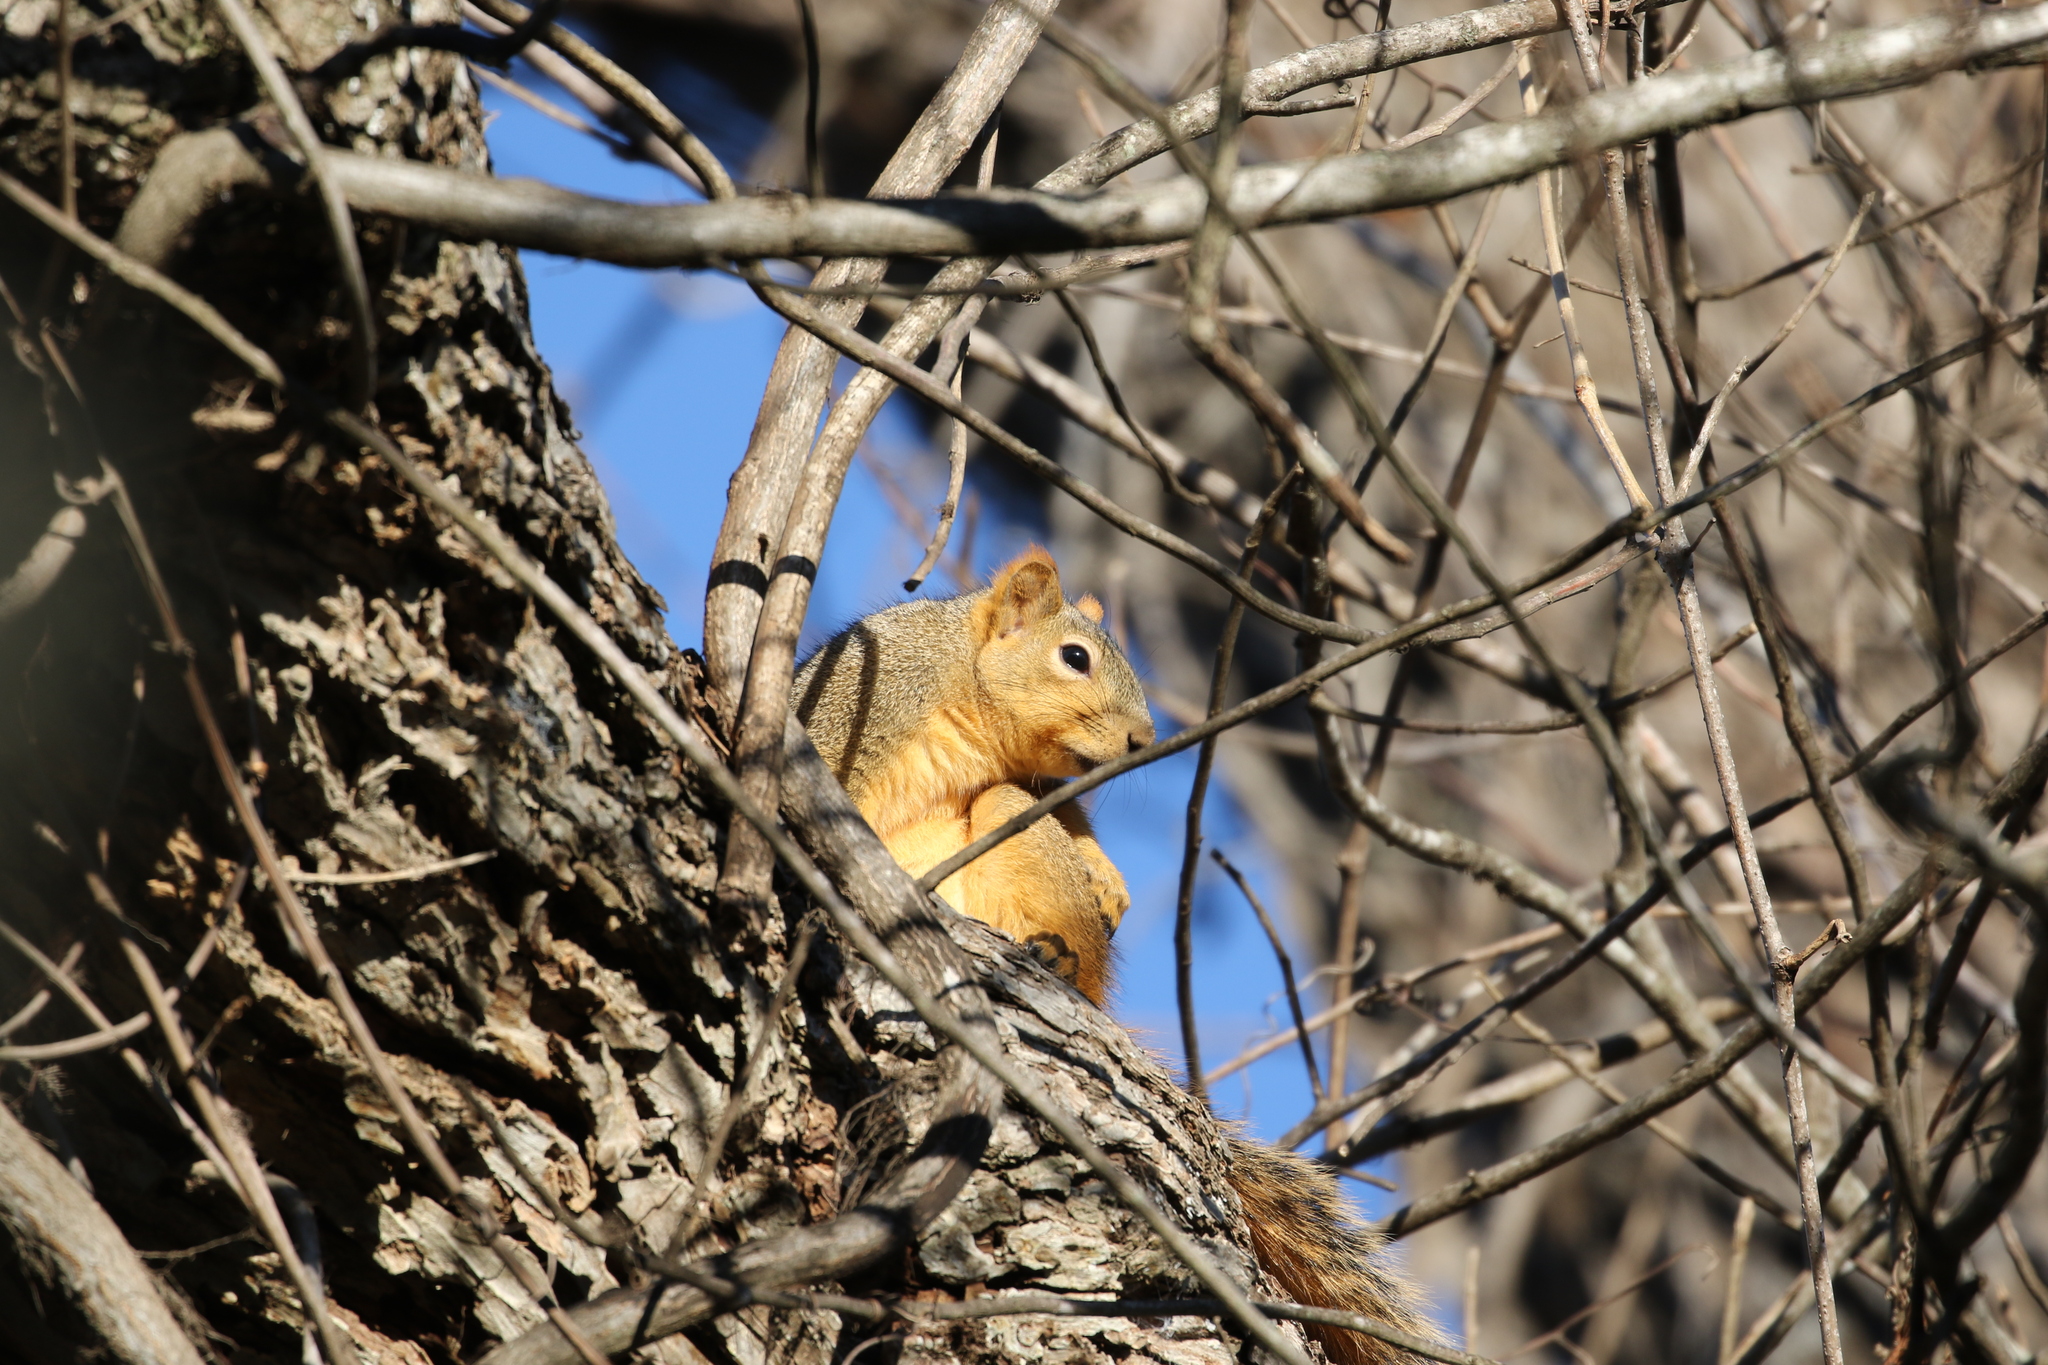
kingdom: Animalia
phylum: Chordata
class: Mammalia
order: Rodentia
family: Sciuridae
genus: Sciurus
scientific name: Sciurus niger
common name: Fox squirrel
